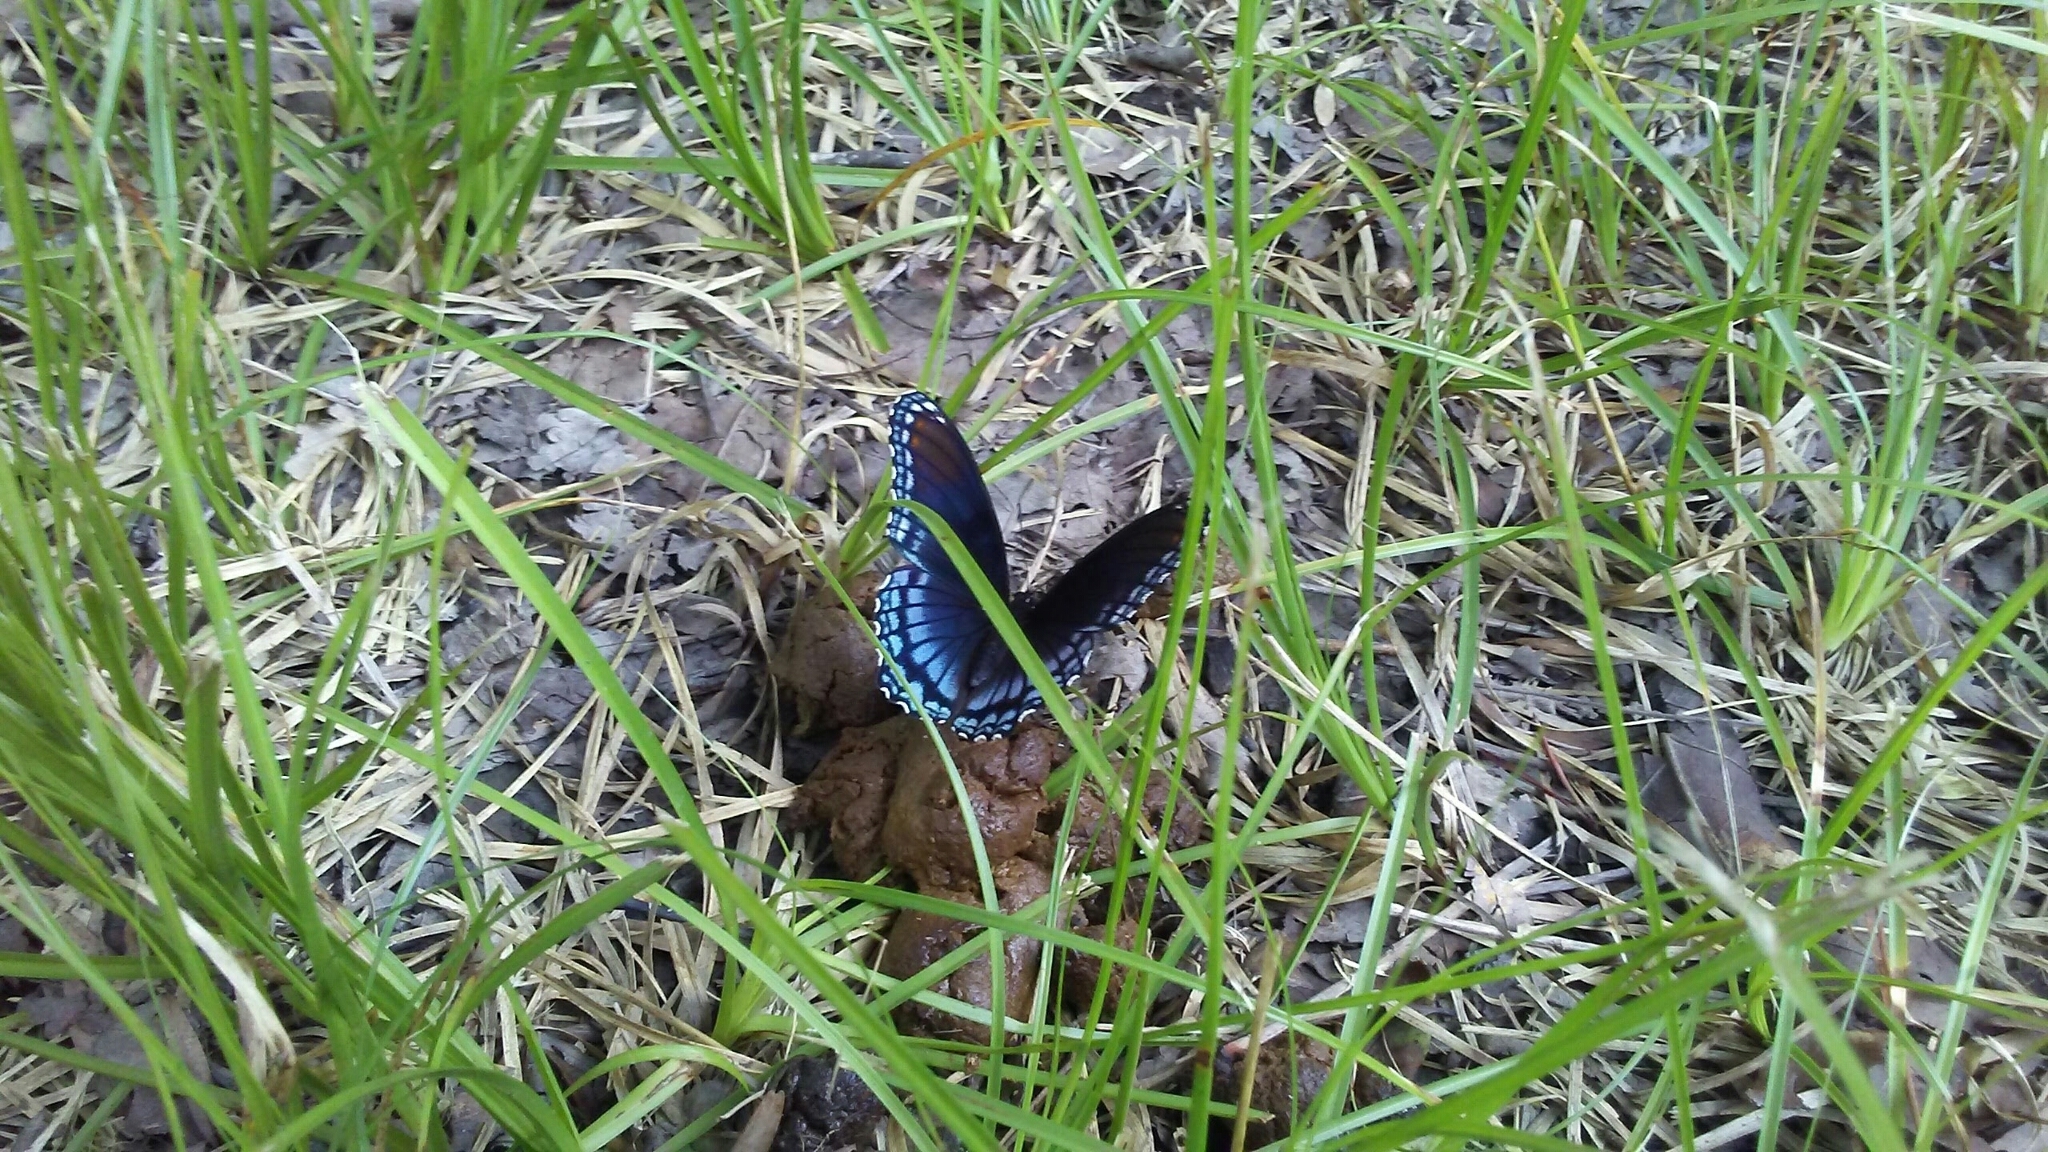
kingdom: Animalia
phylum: Arthropoda
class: Insecta
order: Lepidoptera
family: Nymphalidae
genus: Limenitis
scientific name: Limenitis astyanax
